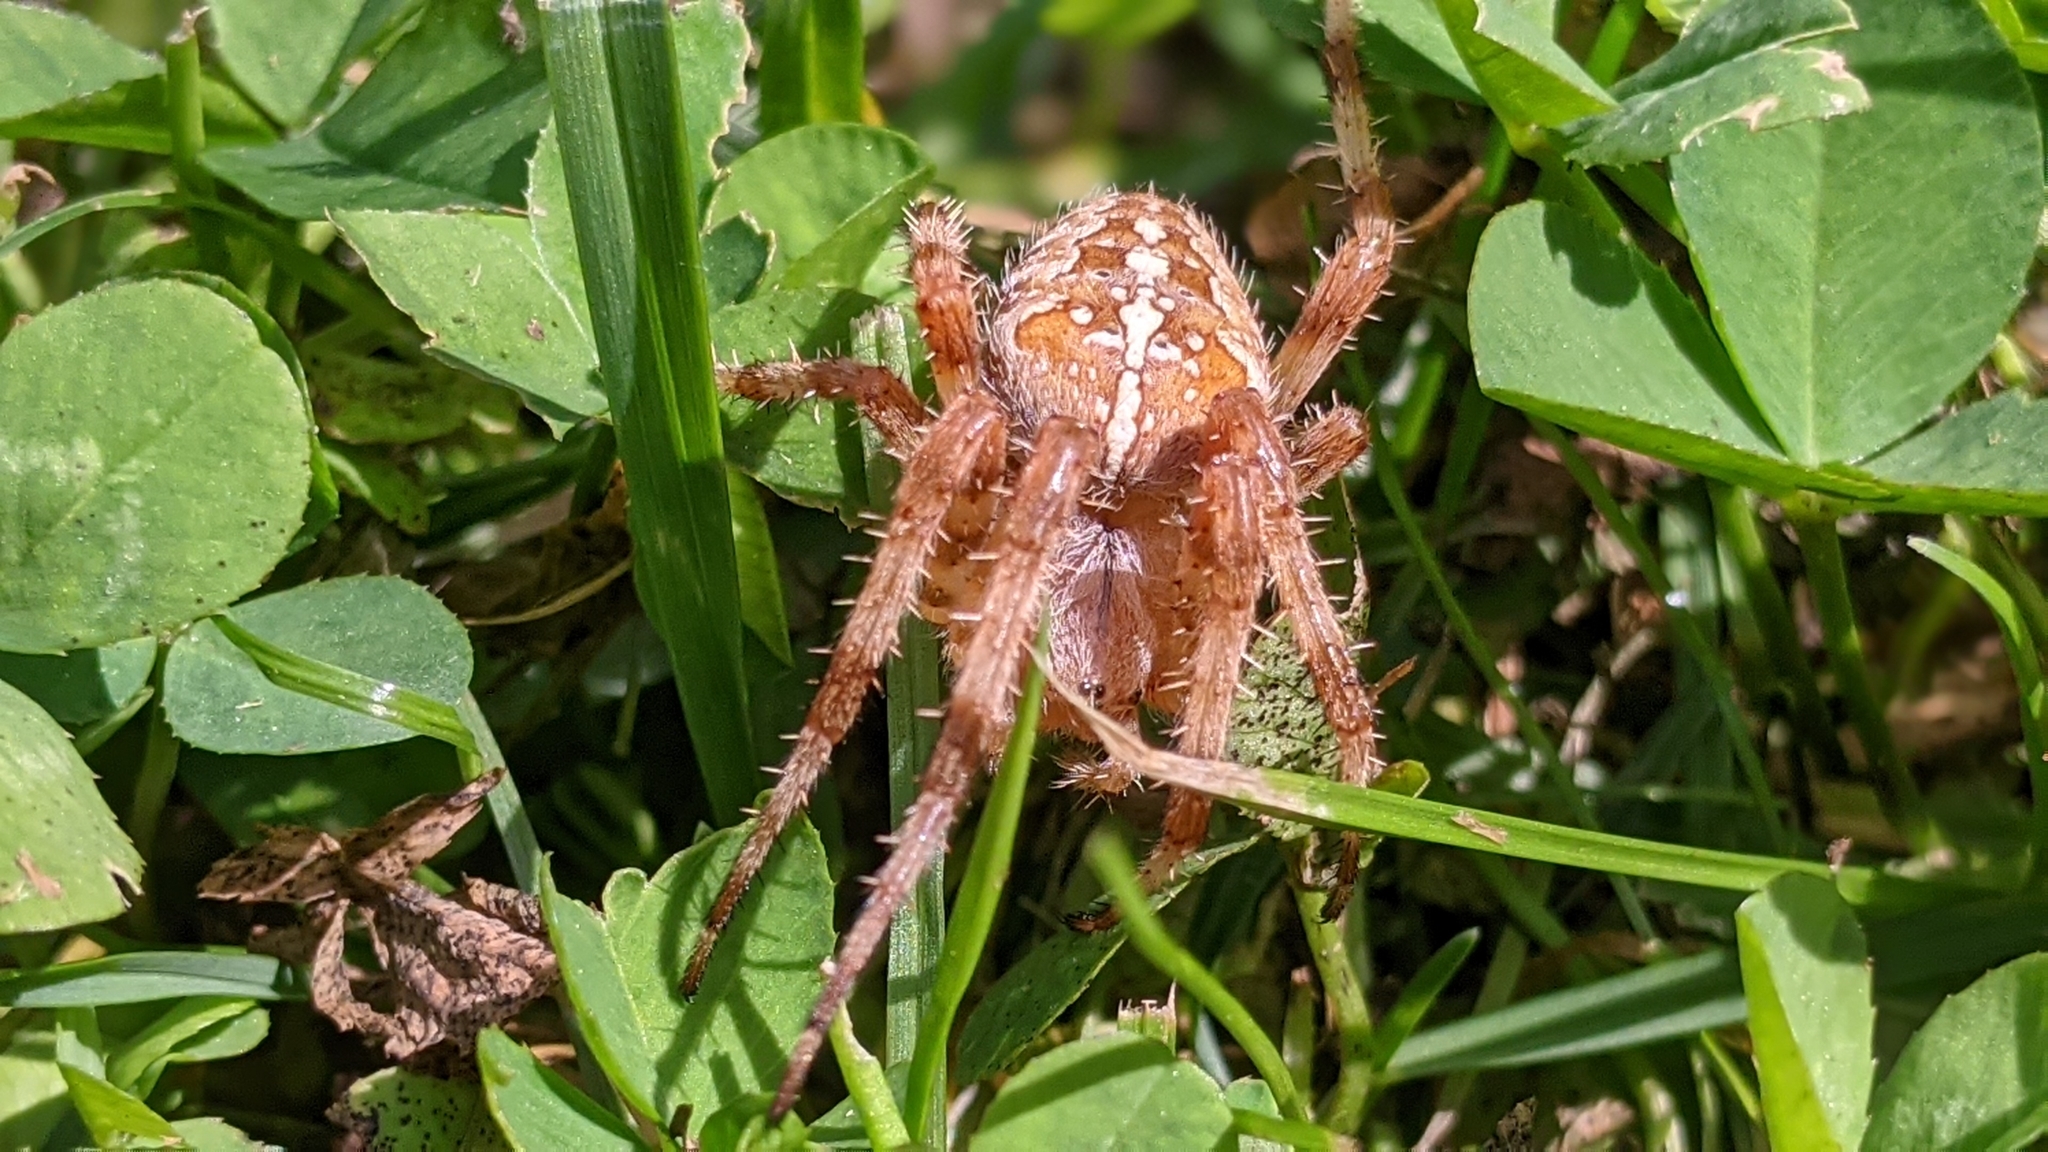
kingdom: Animalia
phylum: Arthropoda
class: Arachnida
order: Araneae
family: Araneidae
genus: Araneus
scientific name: Araneus diadematus
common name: Cross orbweaver
